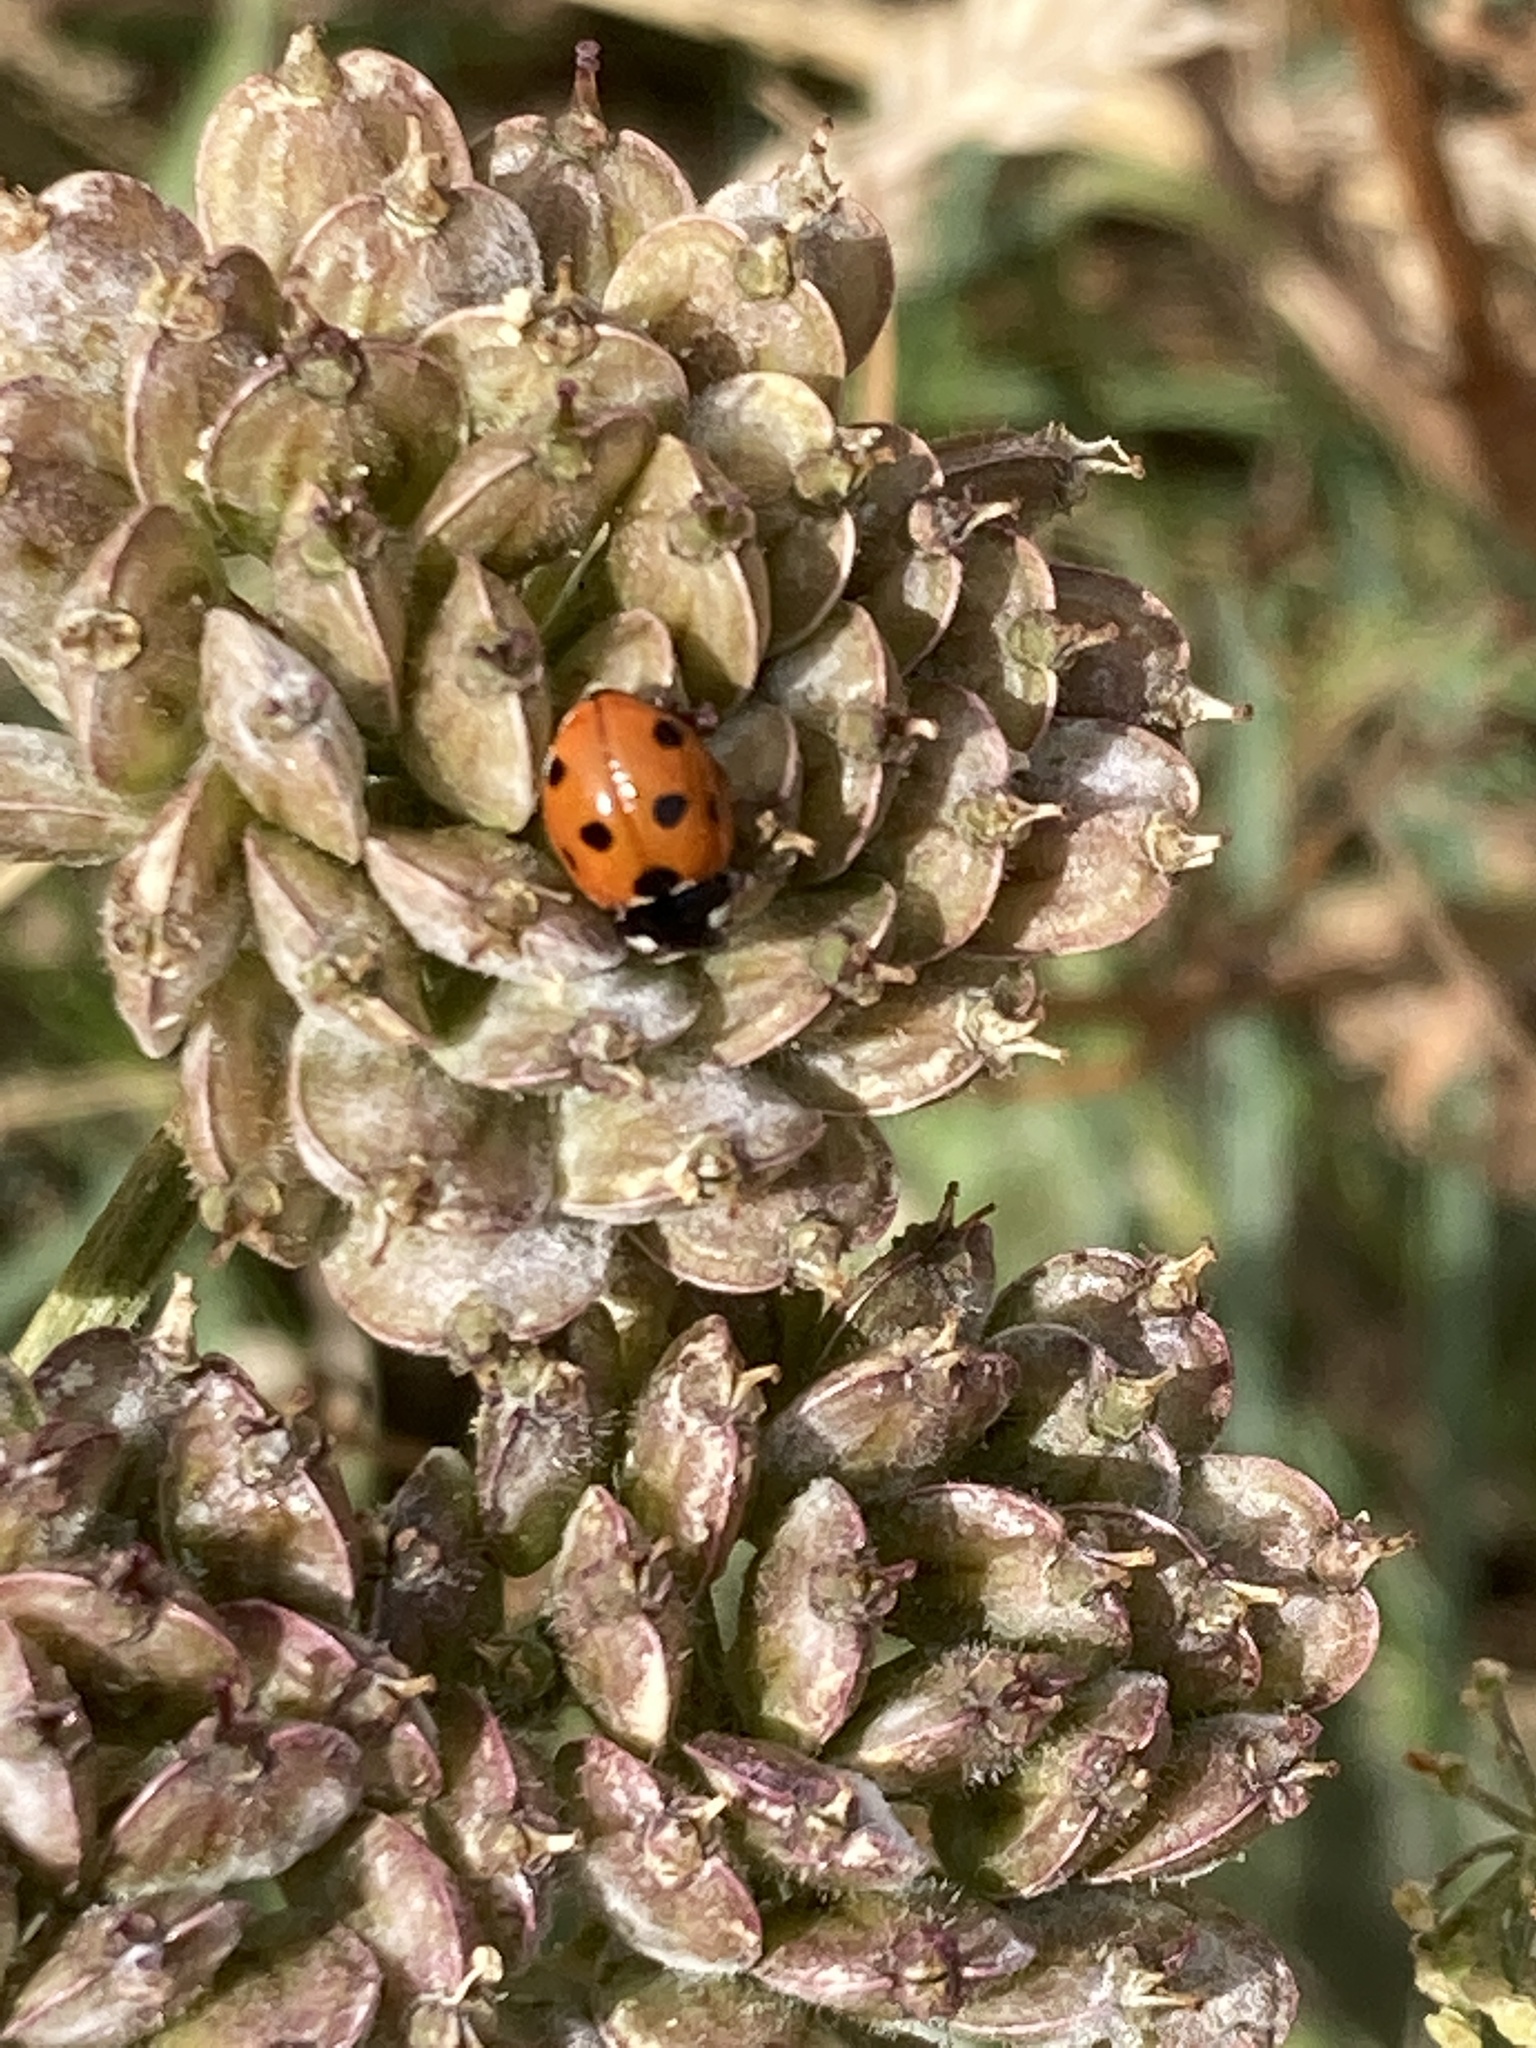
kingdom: Animalia
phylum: Arthropoda
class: Insecta
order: Coleoptera
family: Coccinellidae
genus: Coccinella
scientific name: Coccinella septempunctata
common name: Sevenspotted lady beetle
